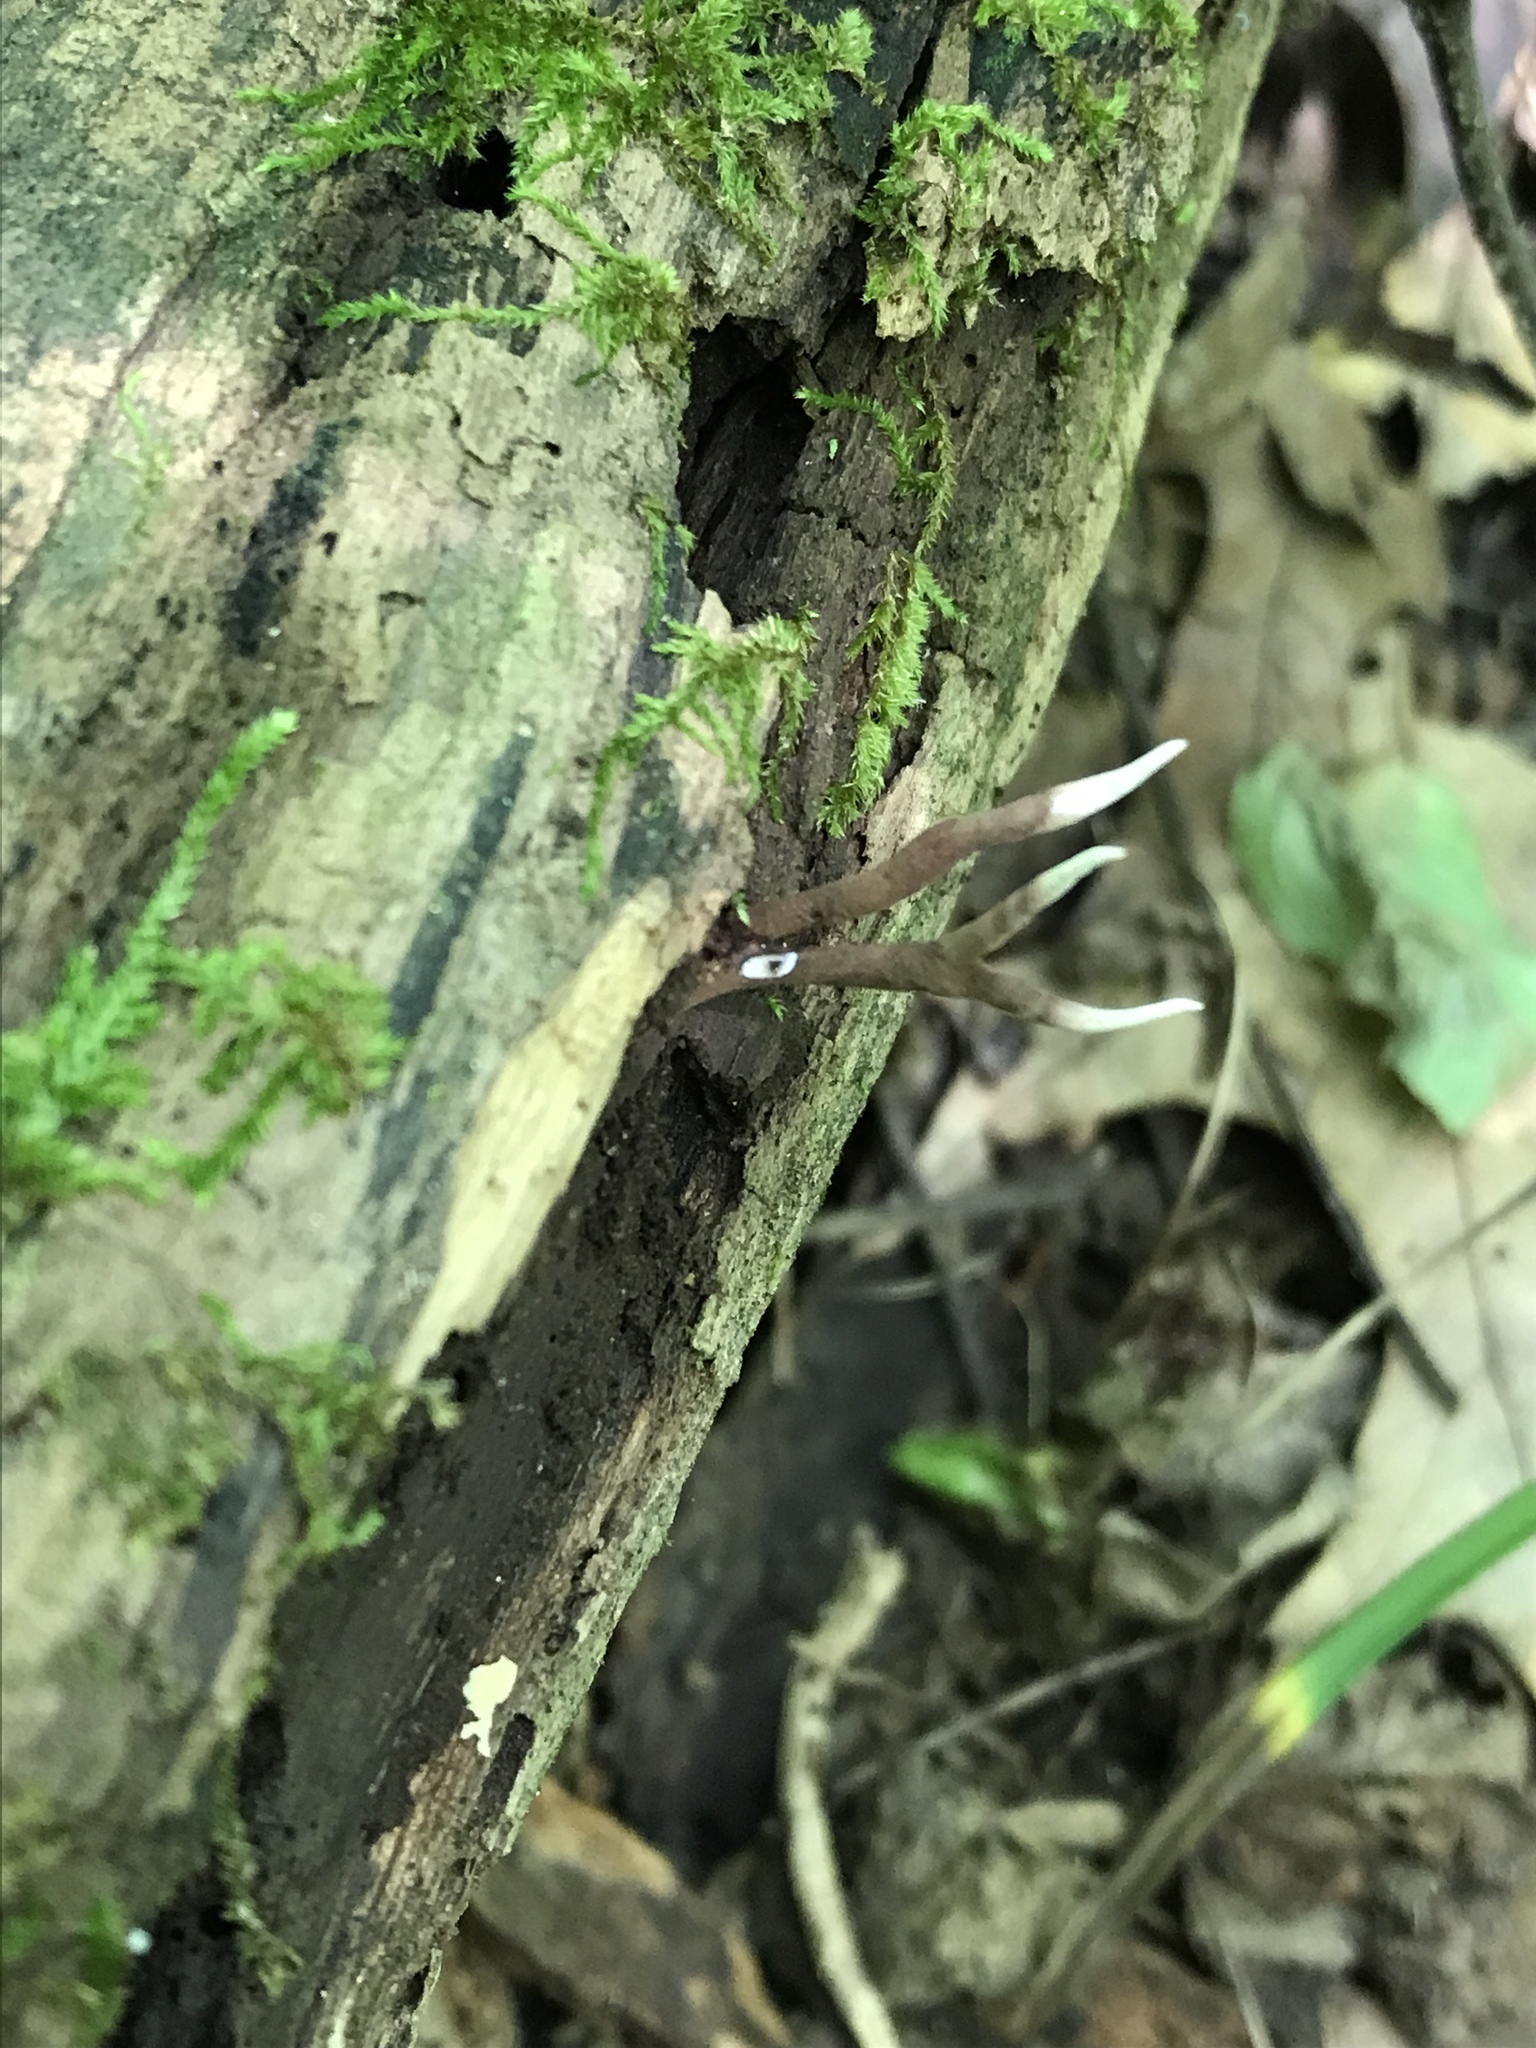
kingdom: Fungi
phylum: Ascomycota
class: Sordariomycetes
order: Hypocreales
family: Ophiocordycipitaceae
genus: Ophiocordyceps
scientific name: Ophiocordyceps smithii
